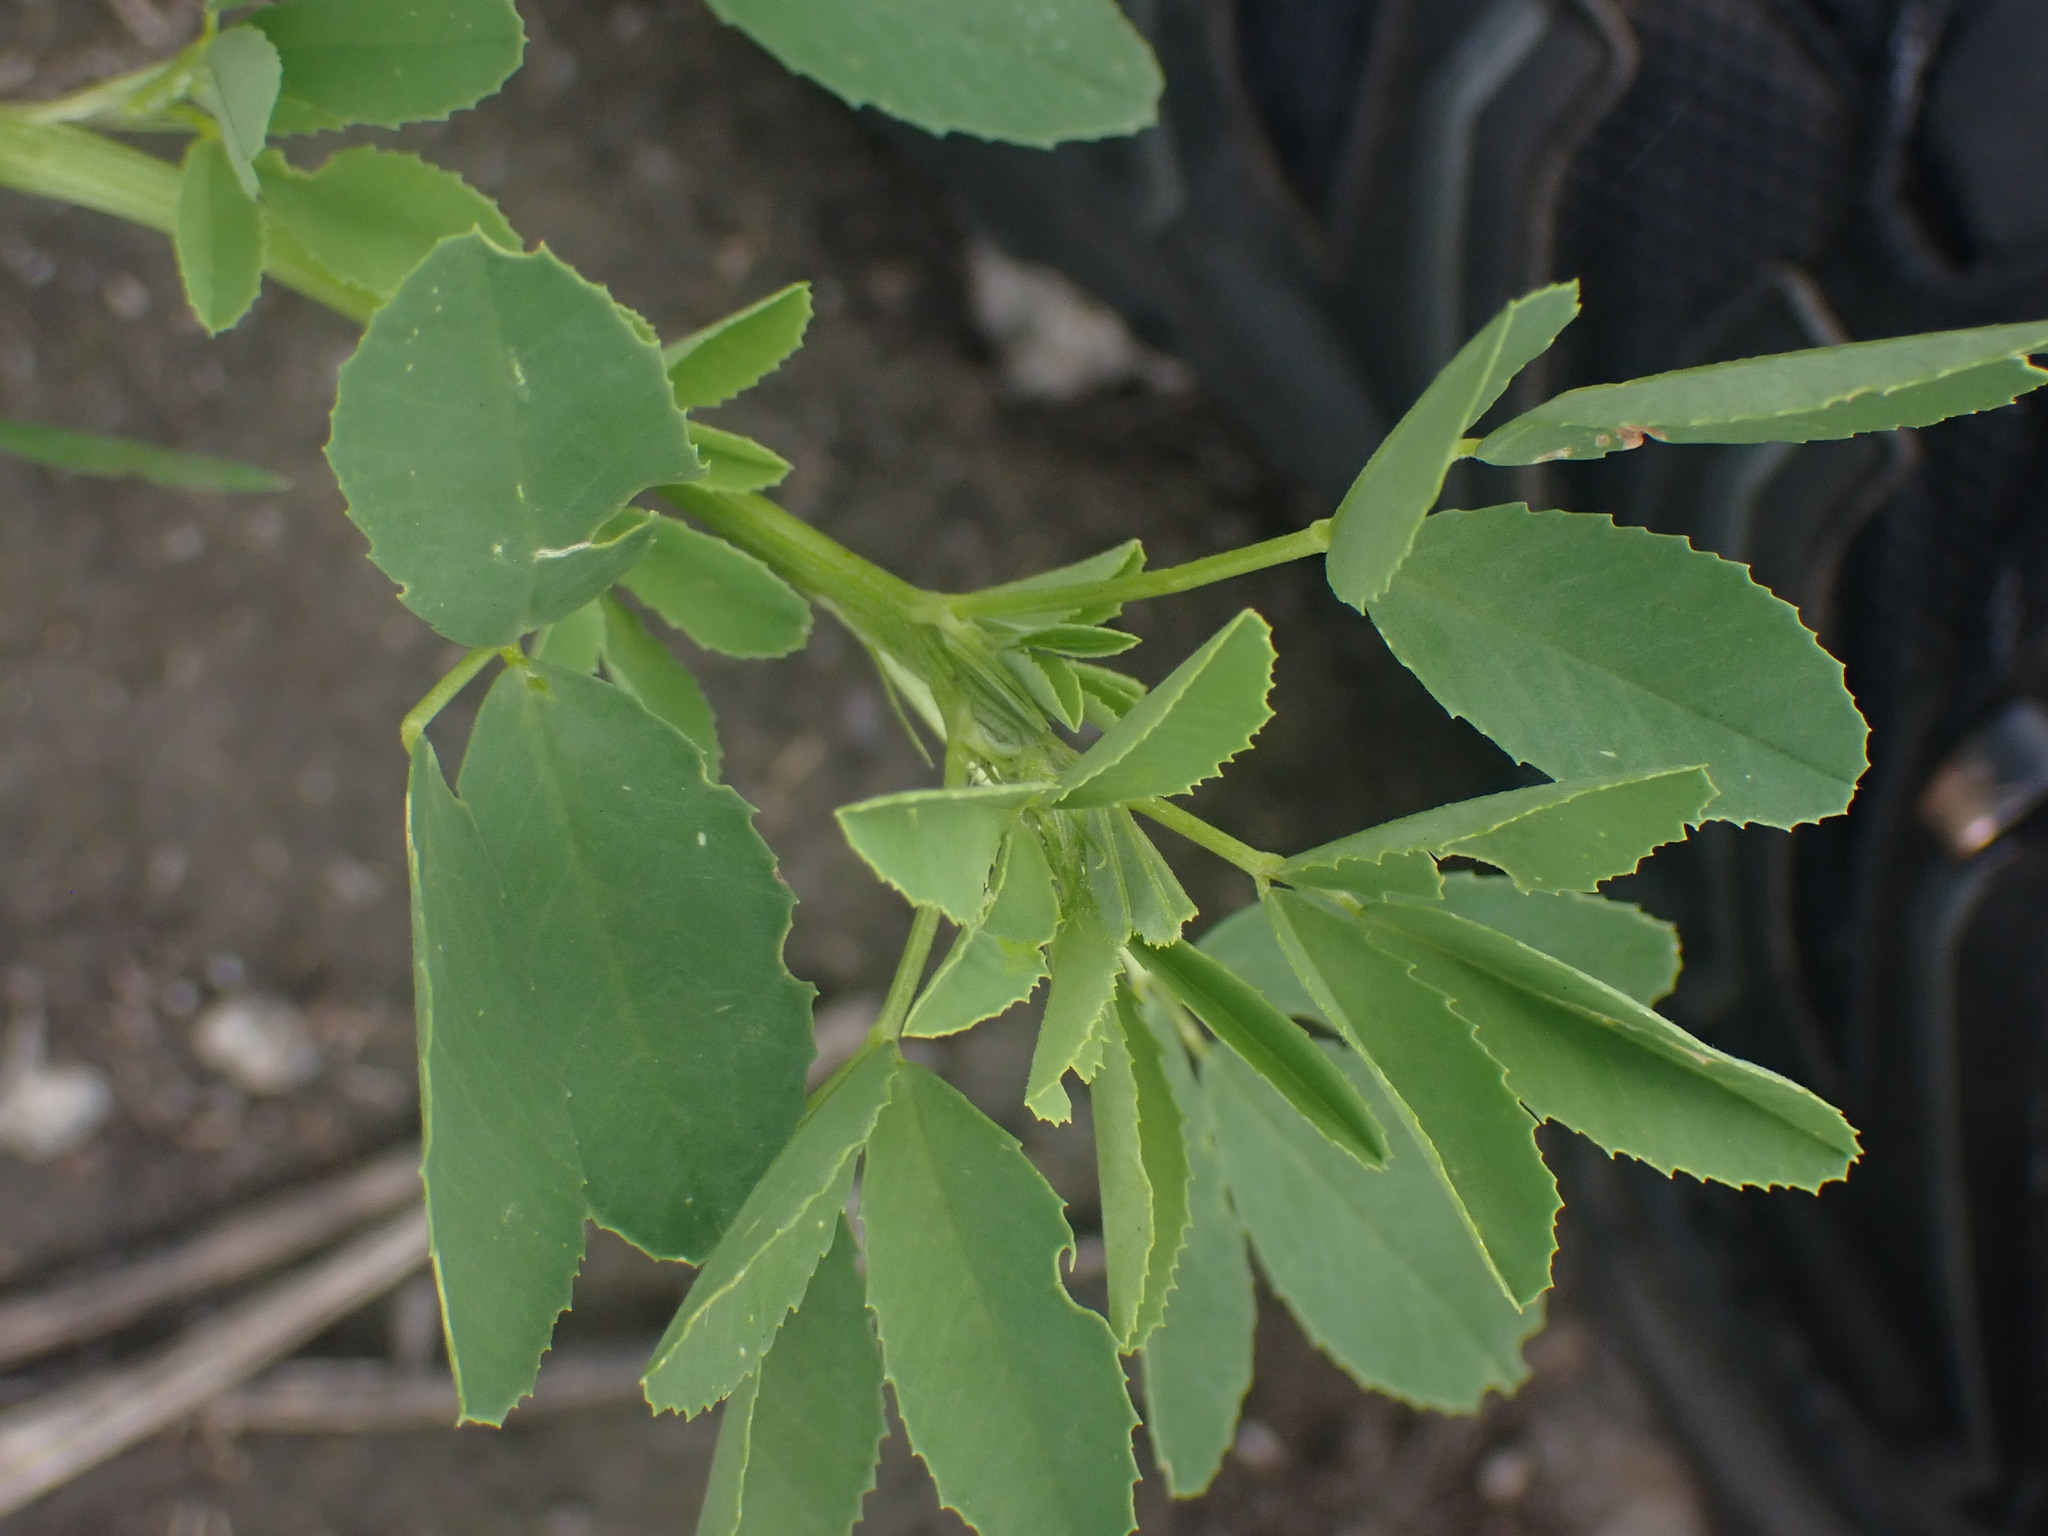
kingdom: Plantae
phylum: Tracheophyta
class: Magnoliopsida
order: Fabales
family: Fabaceae
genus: Melilotus
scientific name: Melilotus
